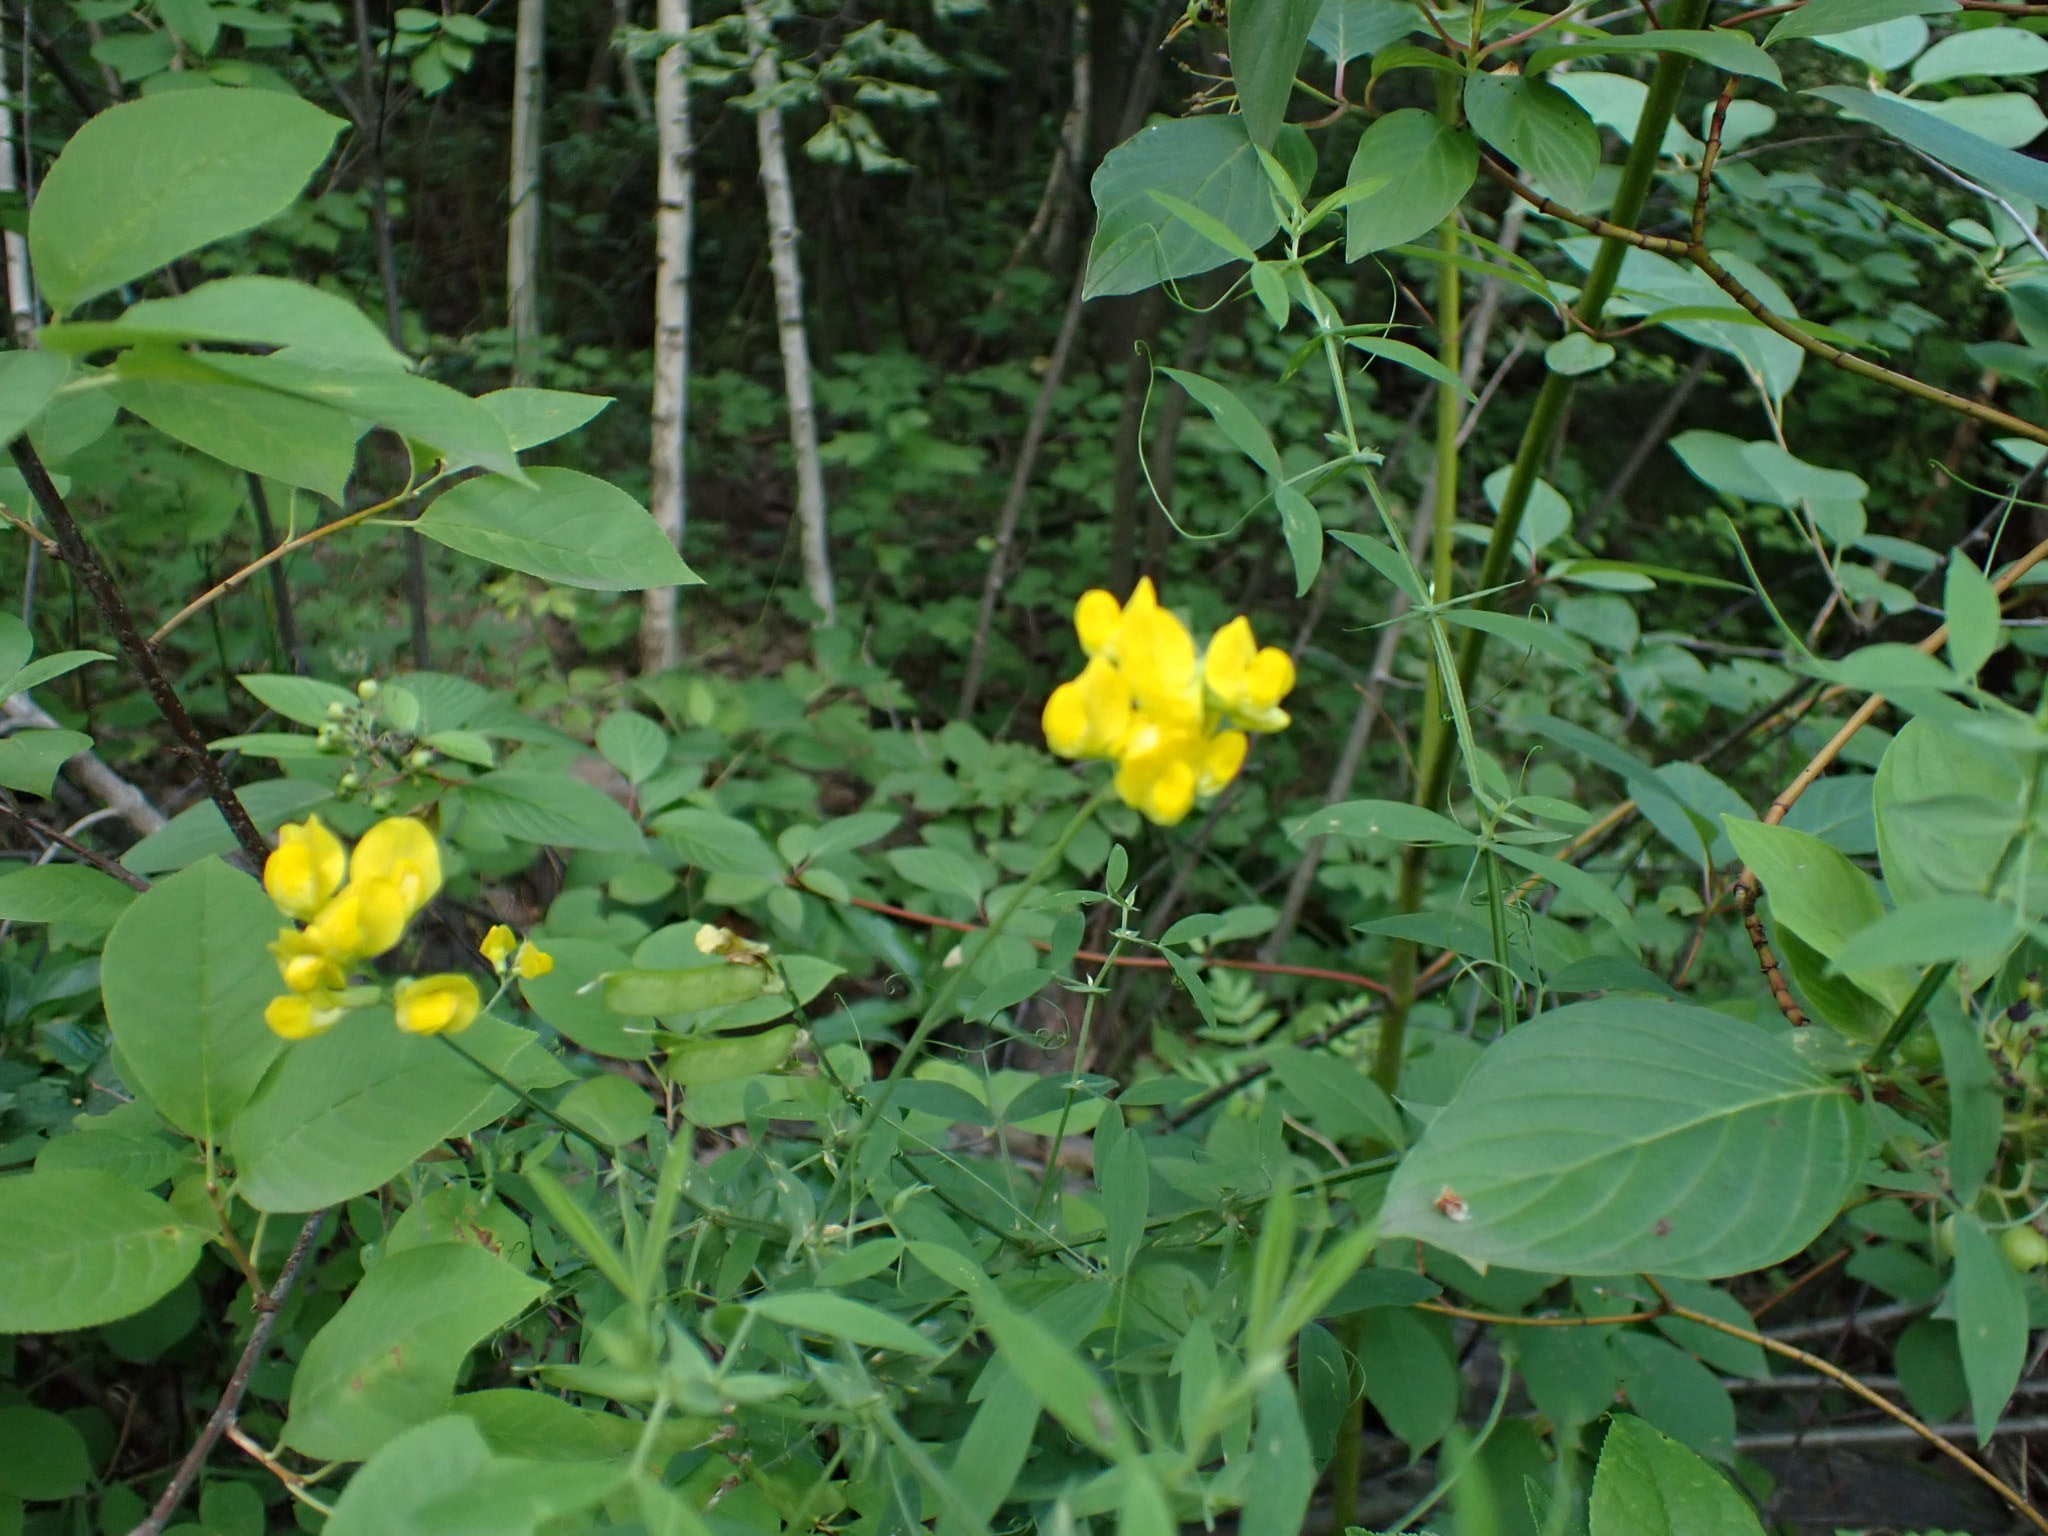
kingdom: Plantae
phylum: Tracheophyta
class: Magnoliopsida
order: Fabales
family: Fabaceae
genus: Lathyrus
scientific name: Lathyrus pratensis
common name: Meadow vetchling
